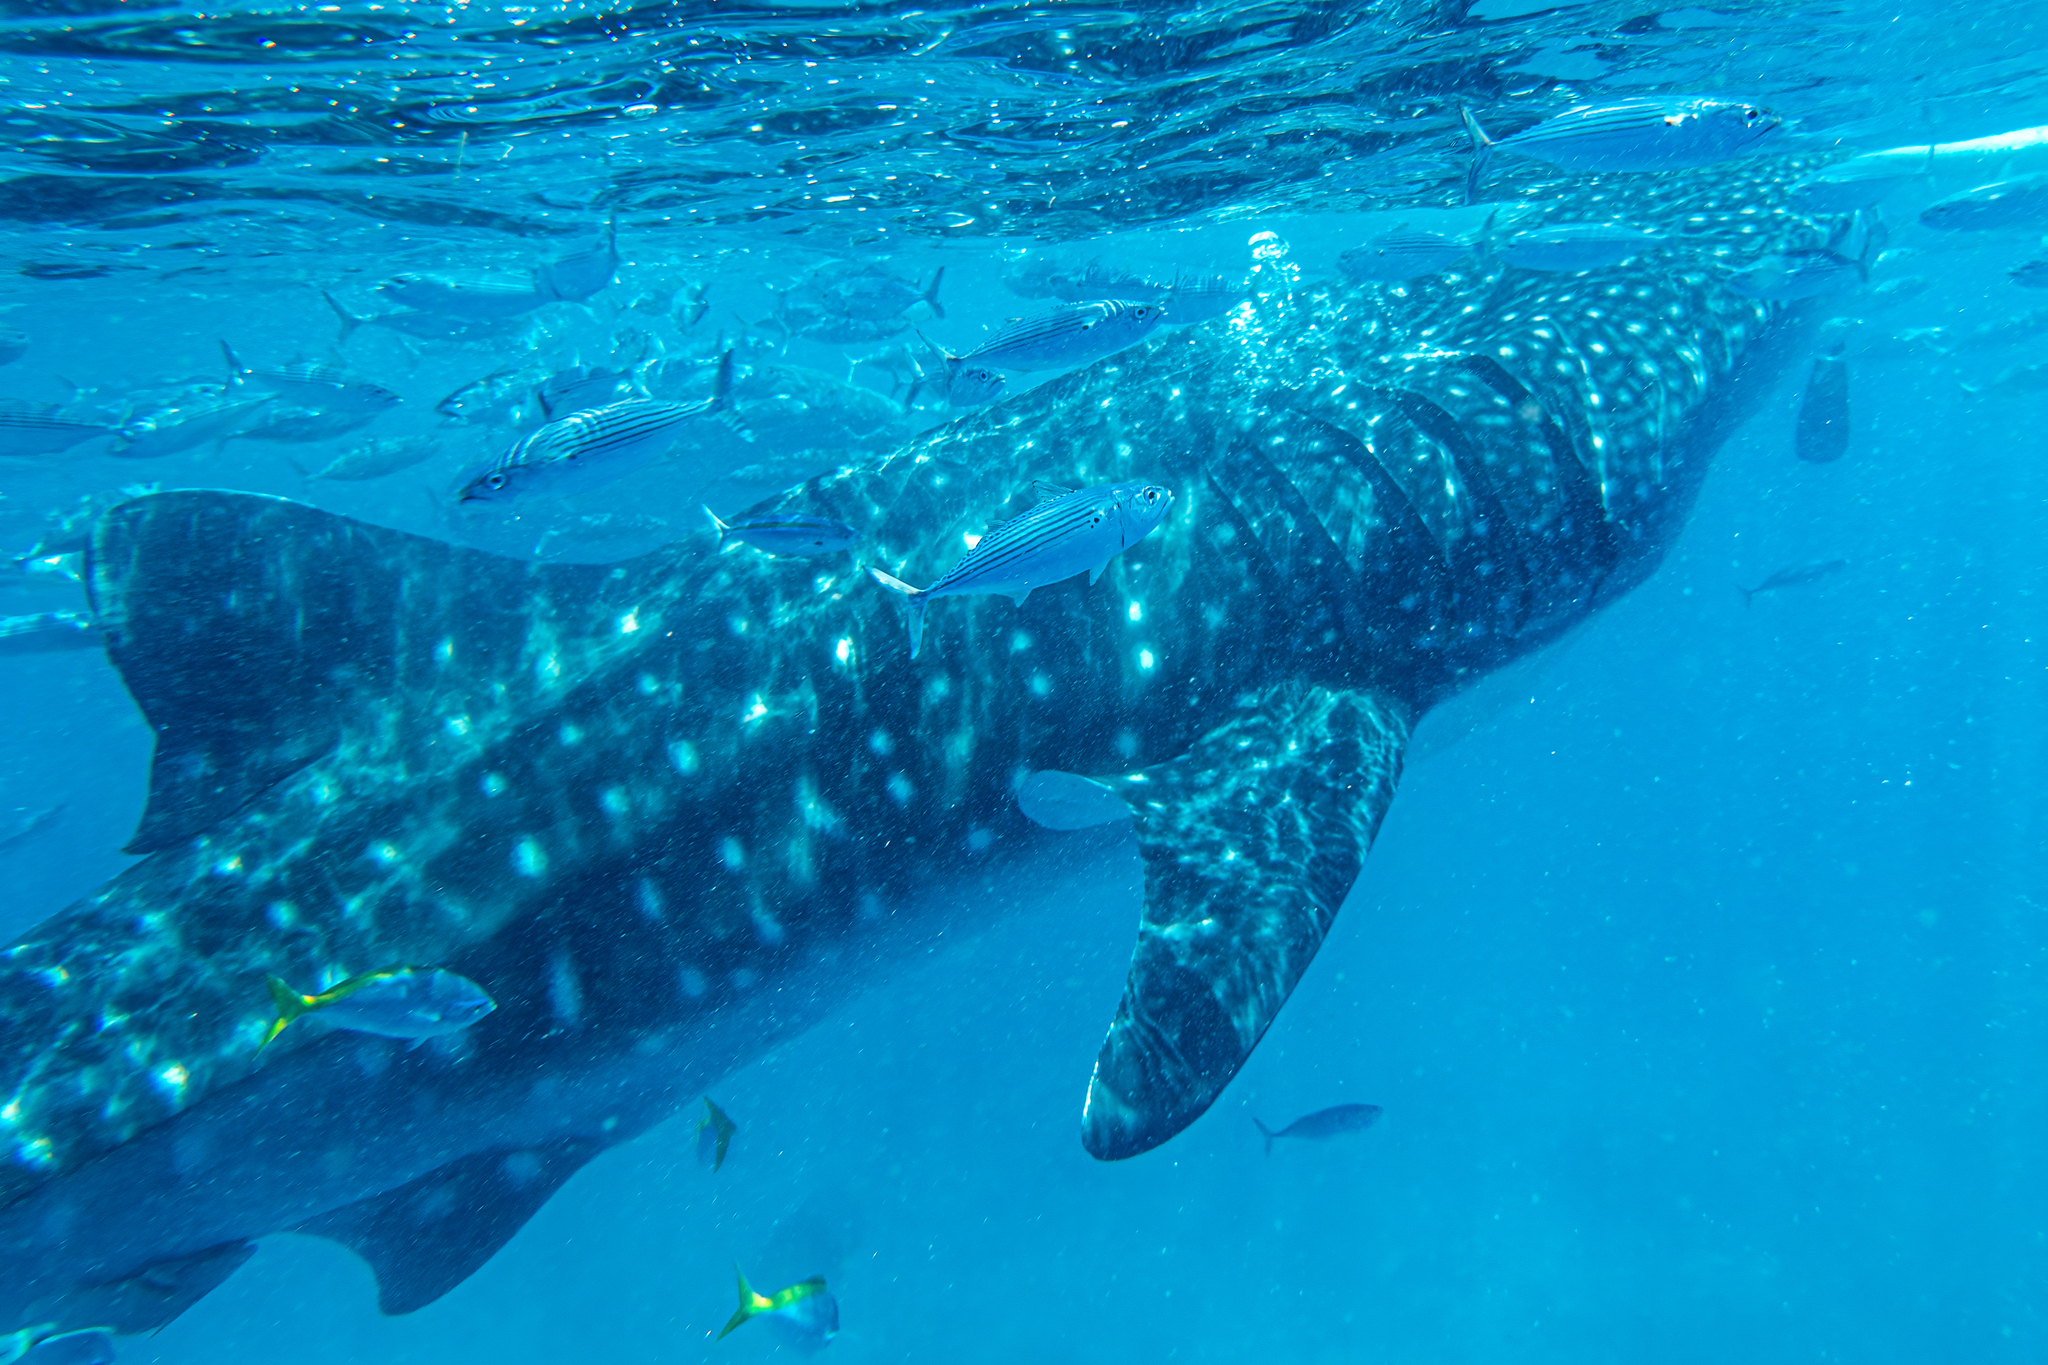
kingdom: Animalia
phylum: Chordata
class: Elasmobranchii
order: Orectolobiformes
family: Rhincodontidae
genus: Rhincodon
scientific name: Rhincodon typus
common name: Whale shark
